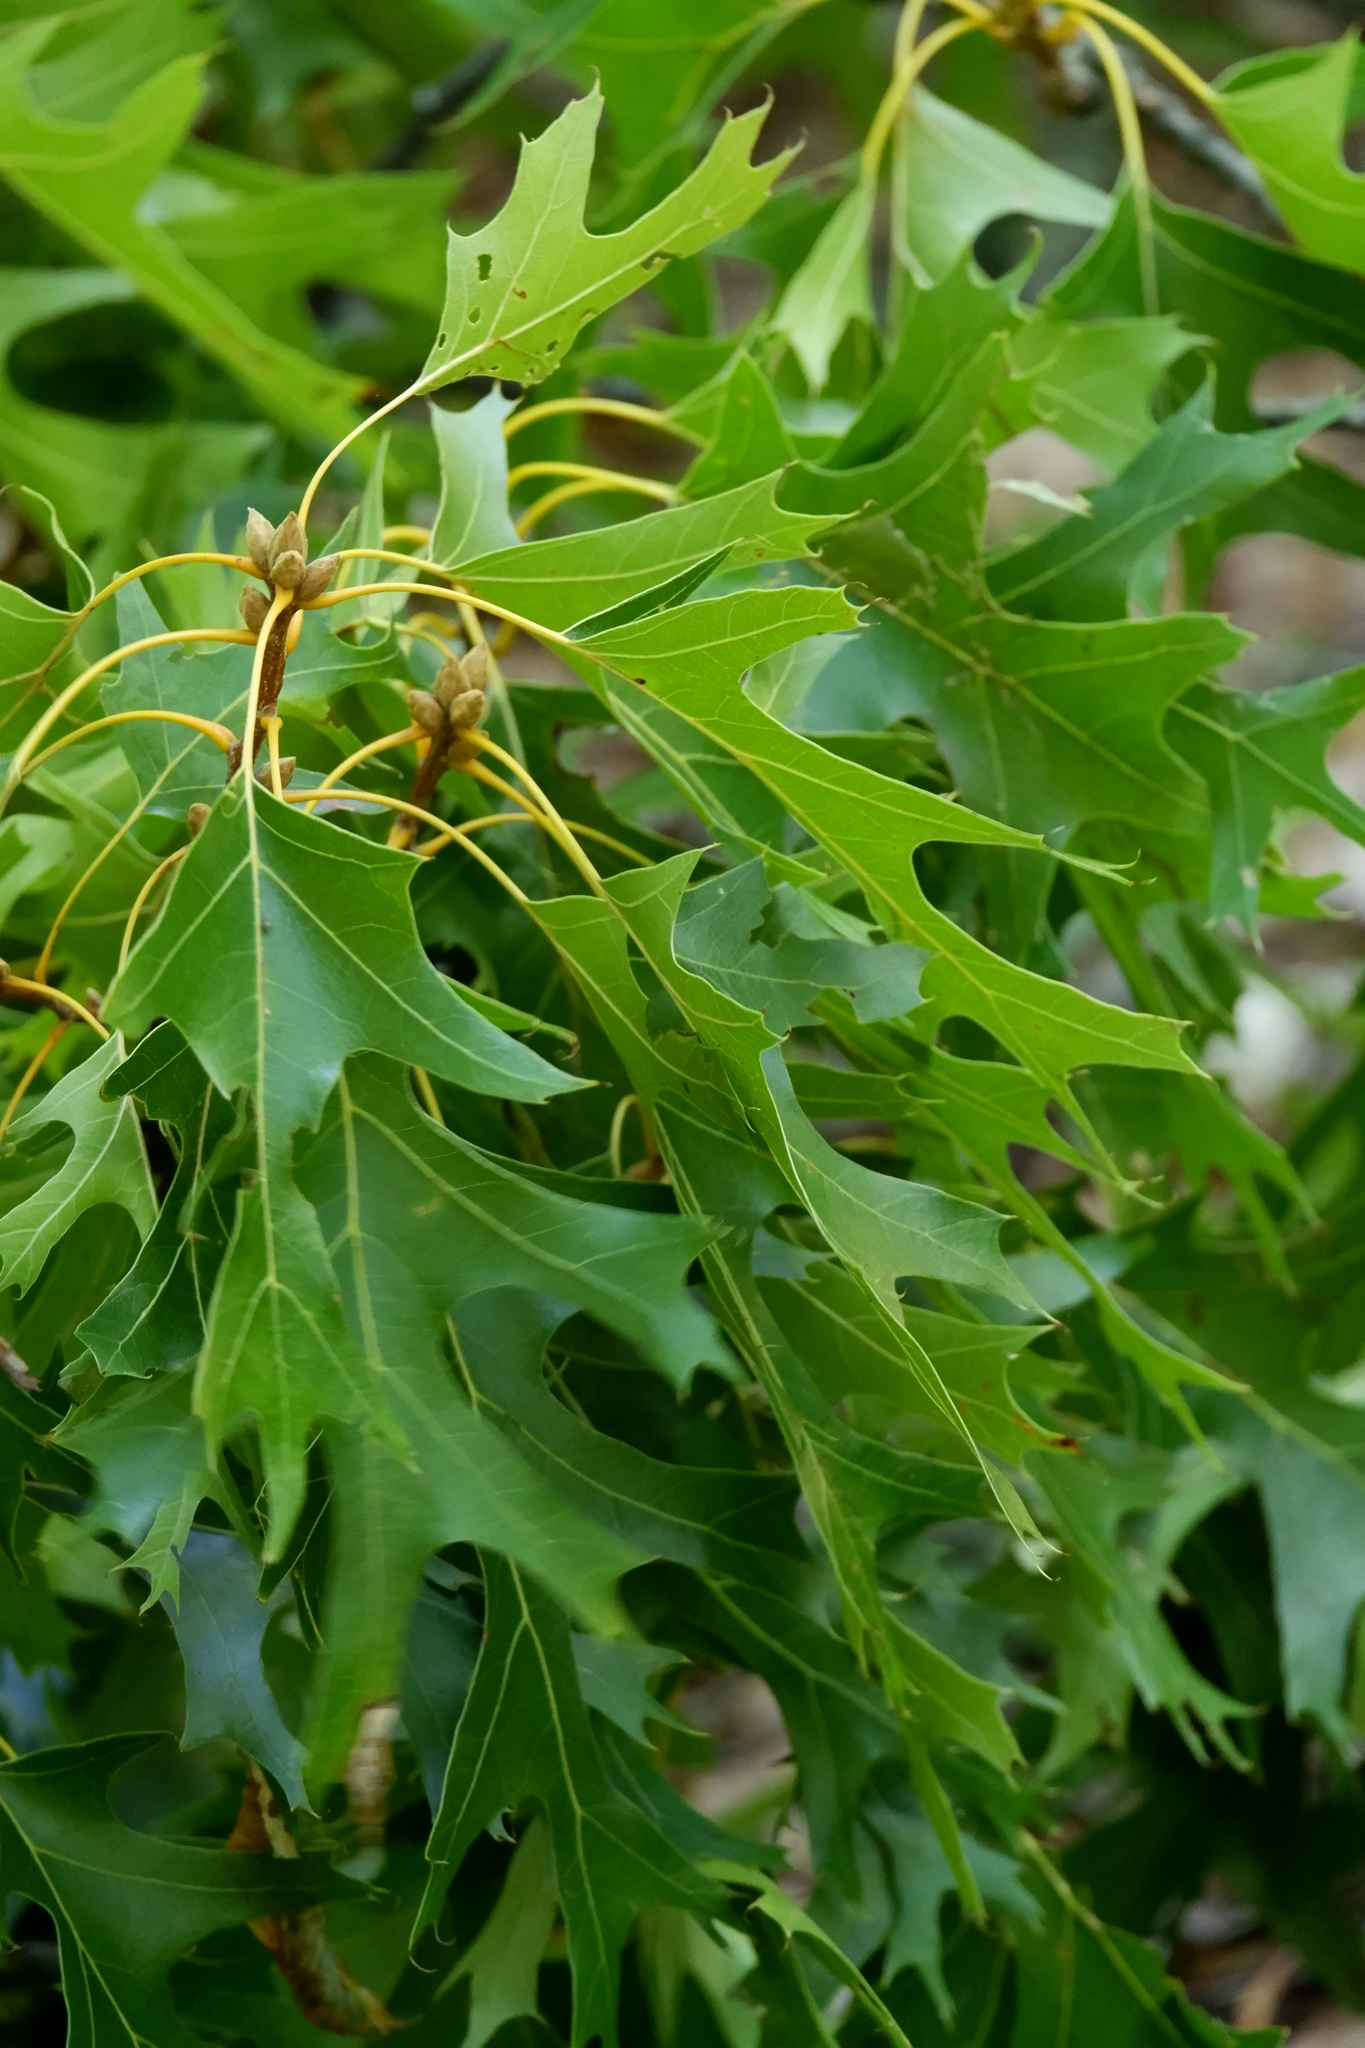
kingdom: Plantae
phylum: Tracheophyta
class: Magnoliopsida
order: Fagales
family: Fagaceae
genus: Quercus
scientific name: Quercus coccinea
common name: Scarlet oak
